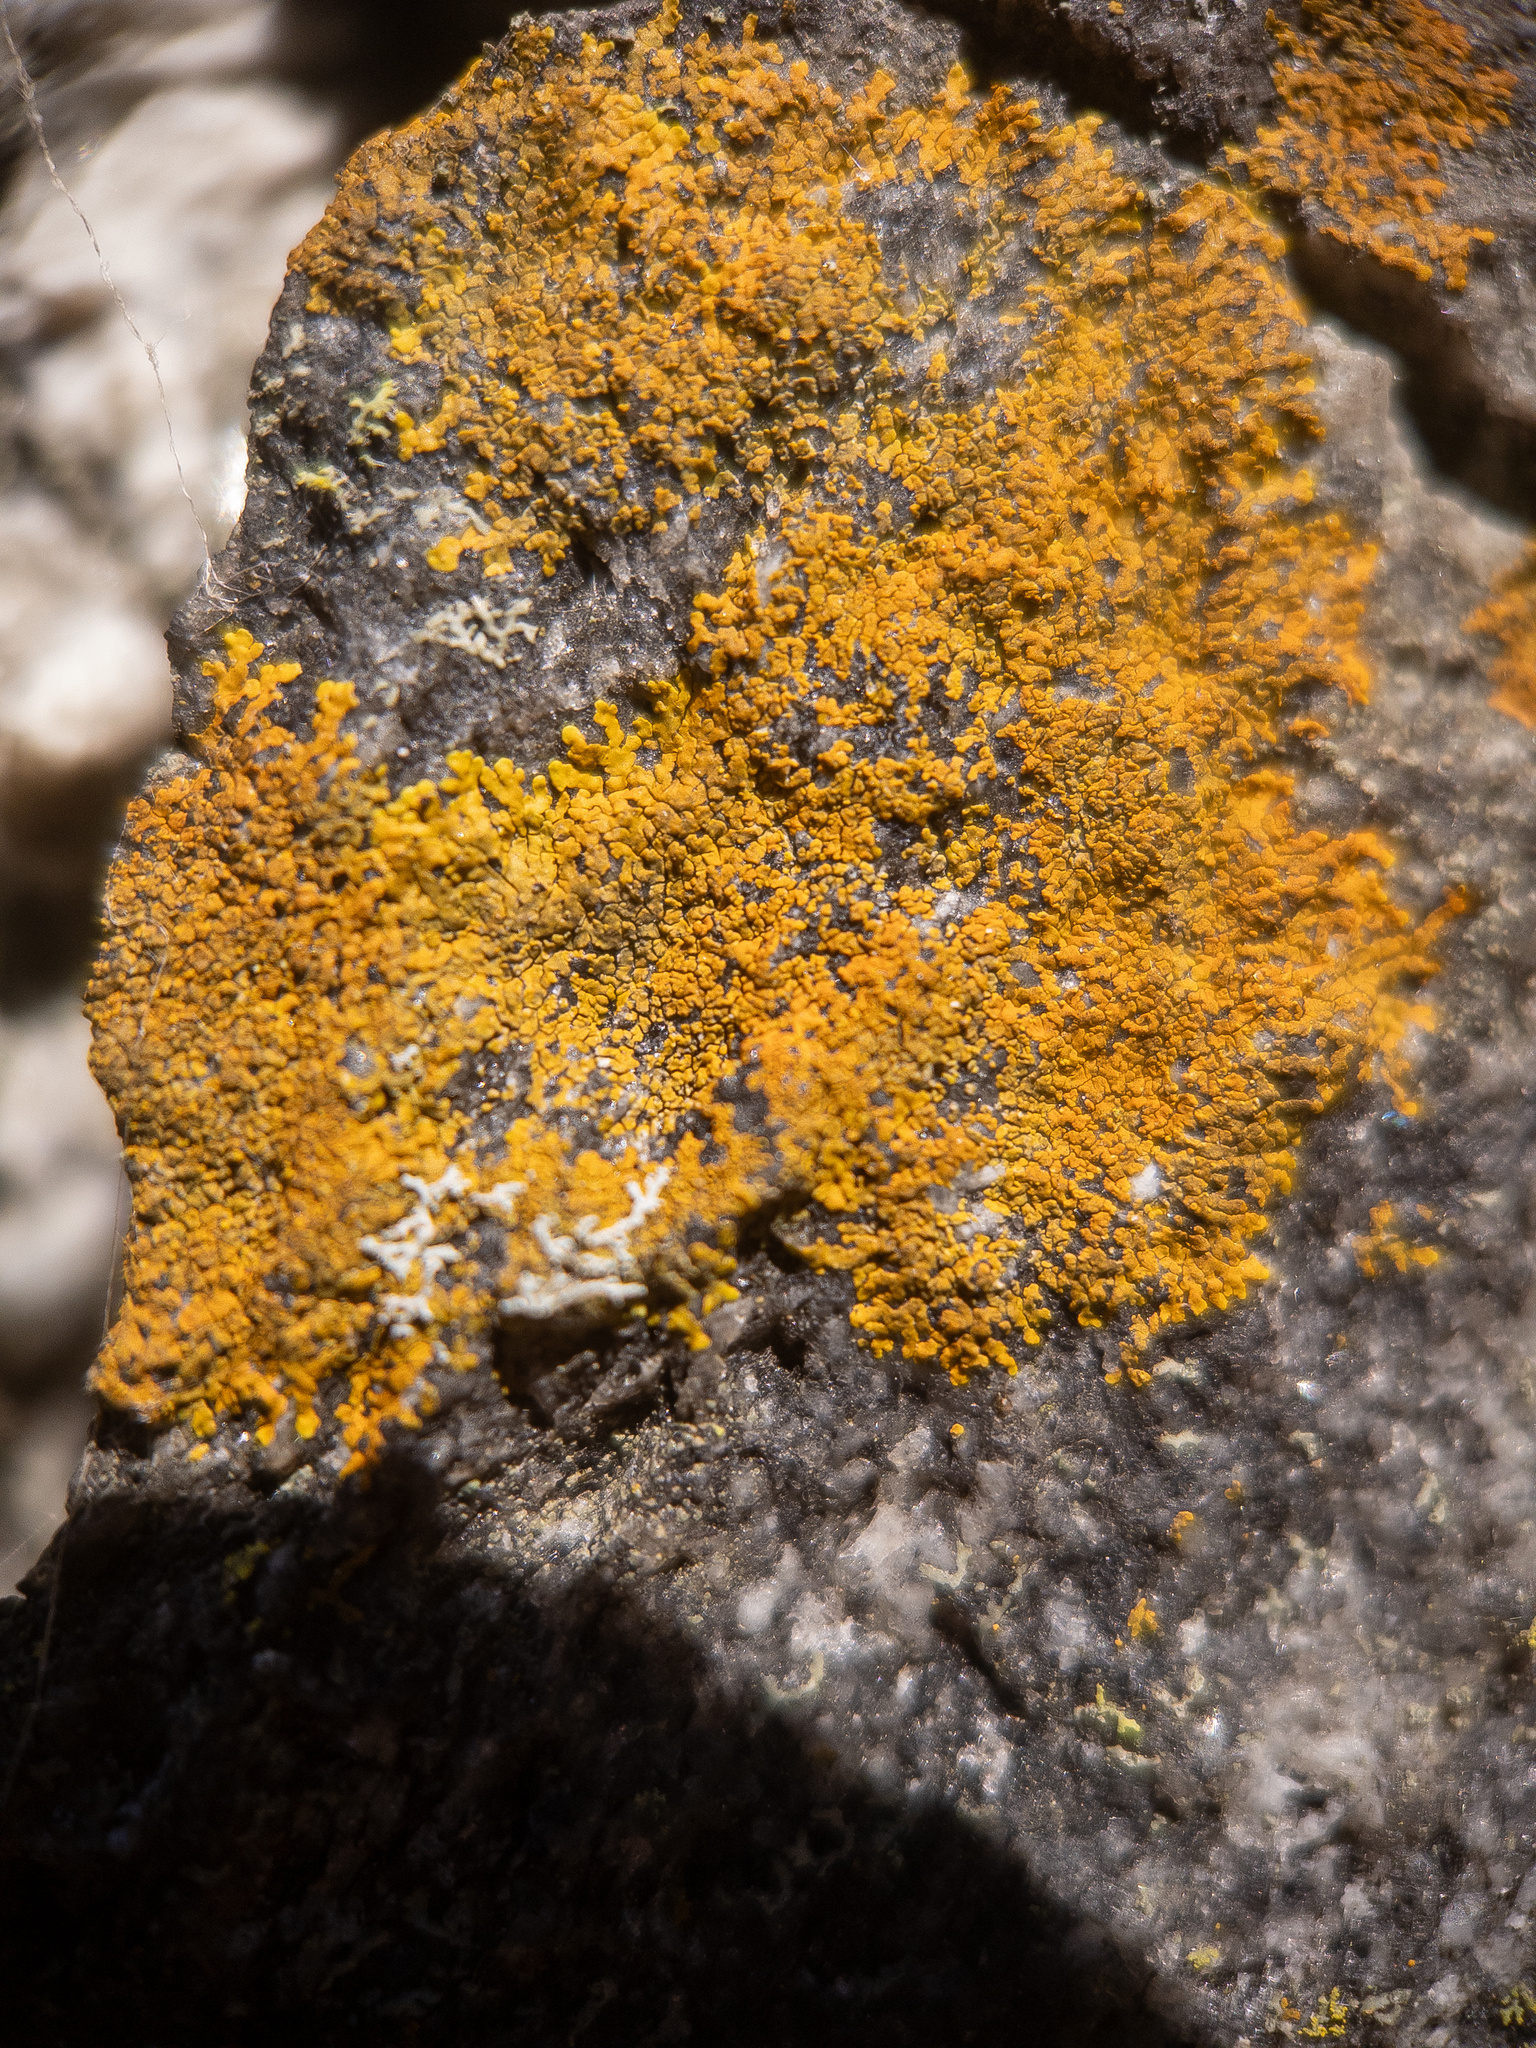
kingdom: Fungi
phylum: Ascomycota
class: Lecanoromycetes
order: Teloschistales
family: Teloschistaceae
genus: Wetmoreana
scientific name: Wetmoreana brouardii
